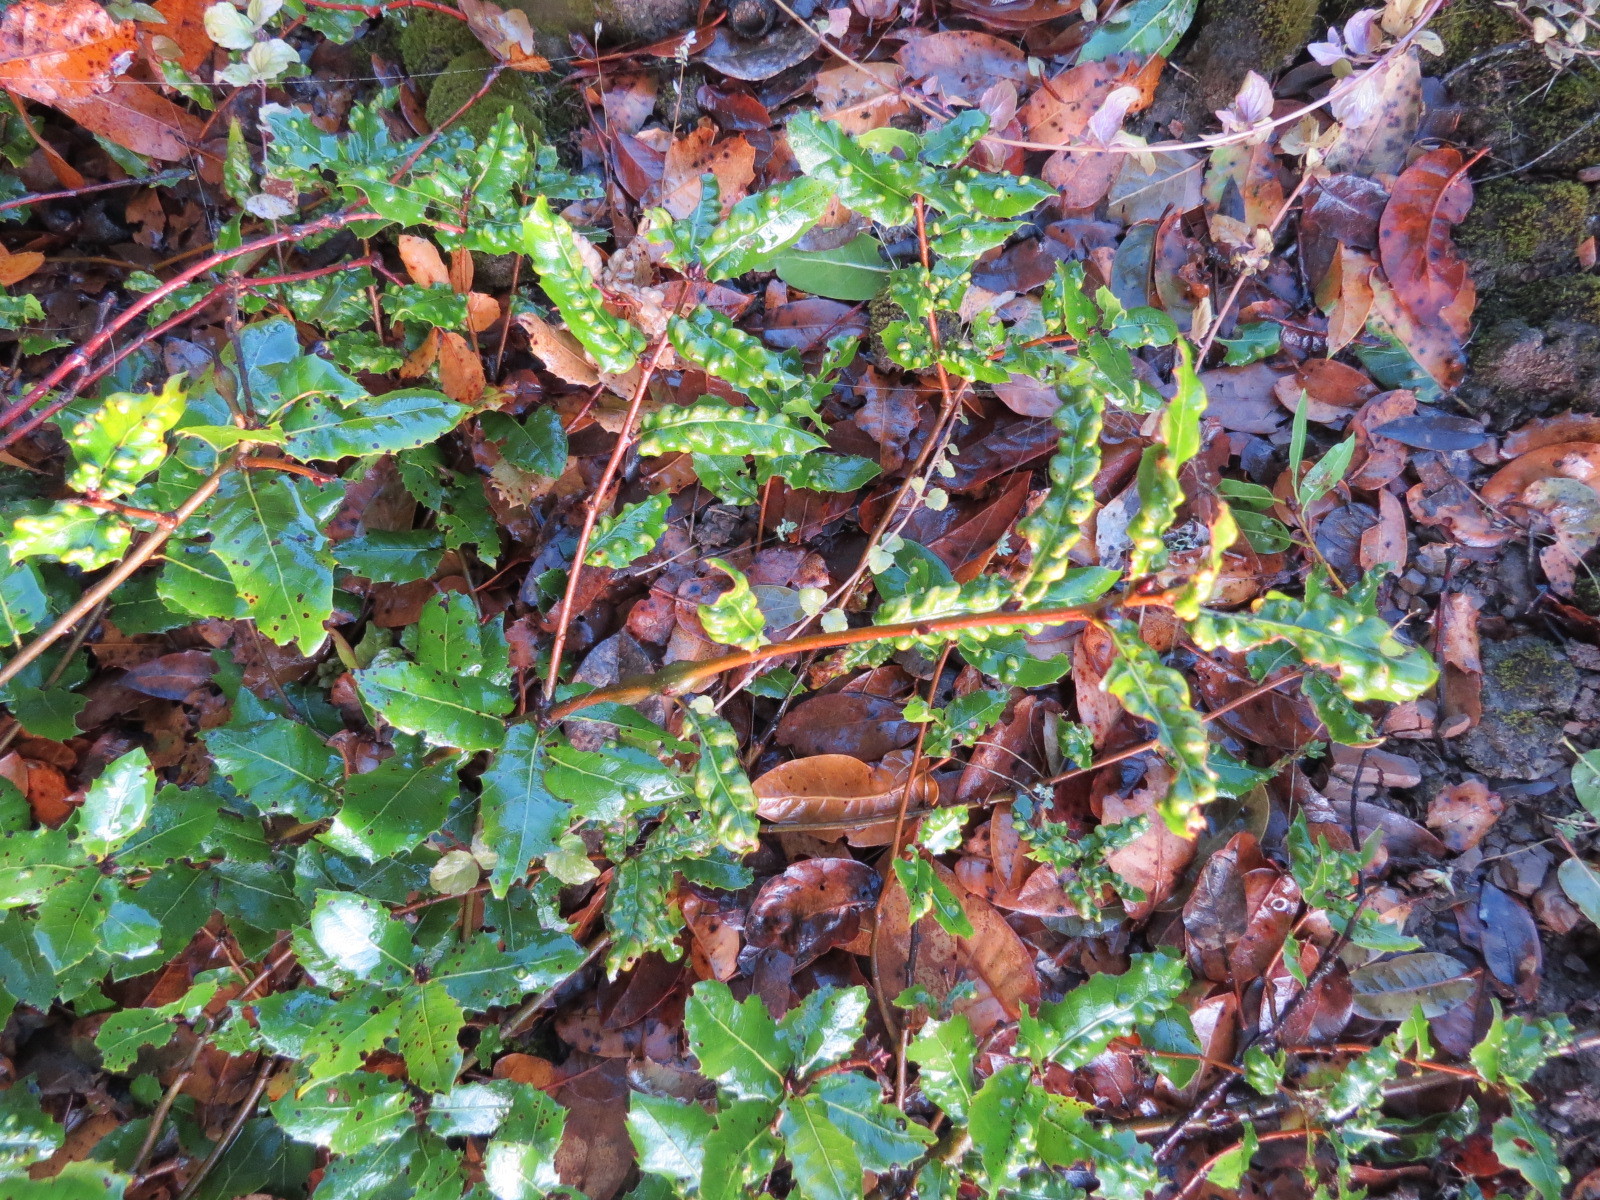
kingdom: Animalia
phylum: Arthropoda
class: Arachnida
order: Trombidiformes
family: Eriophyidae
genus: Aceria
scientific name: Aceria
